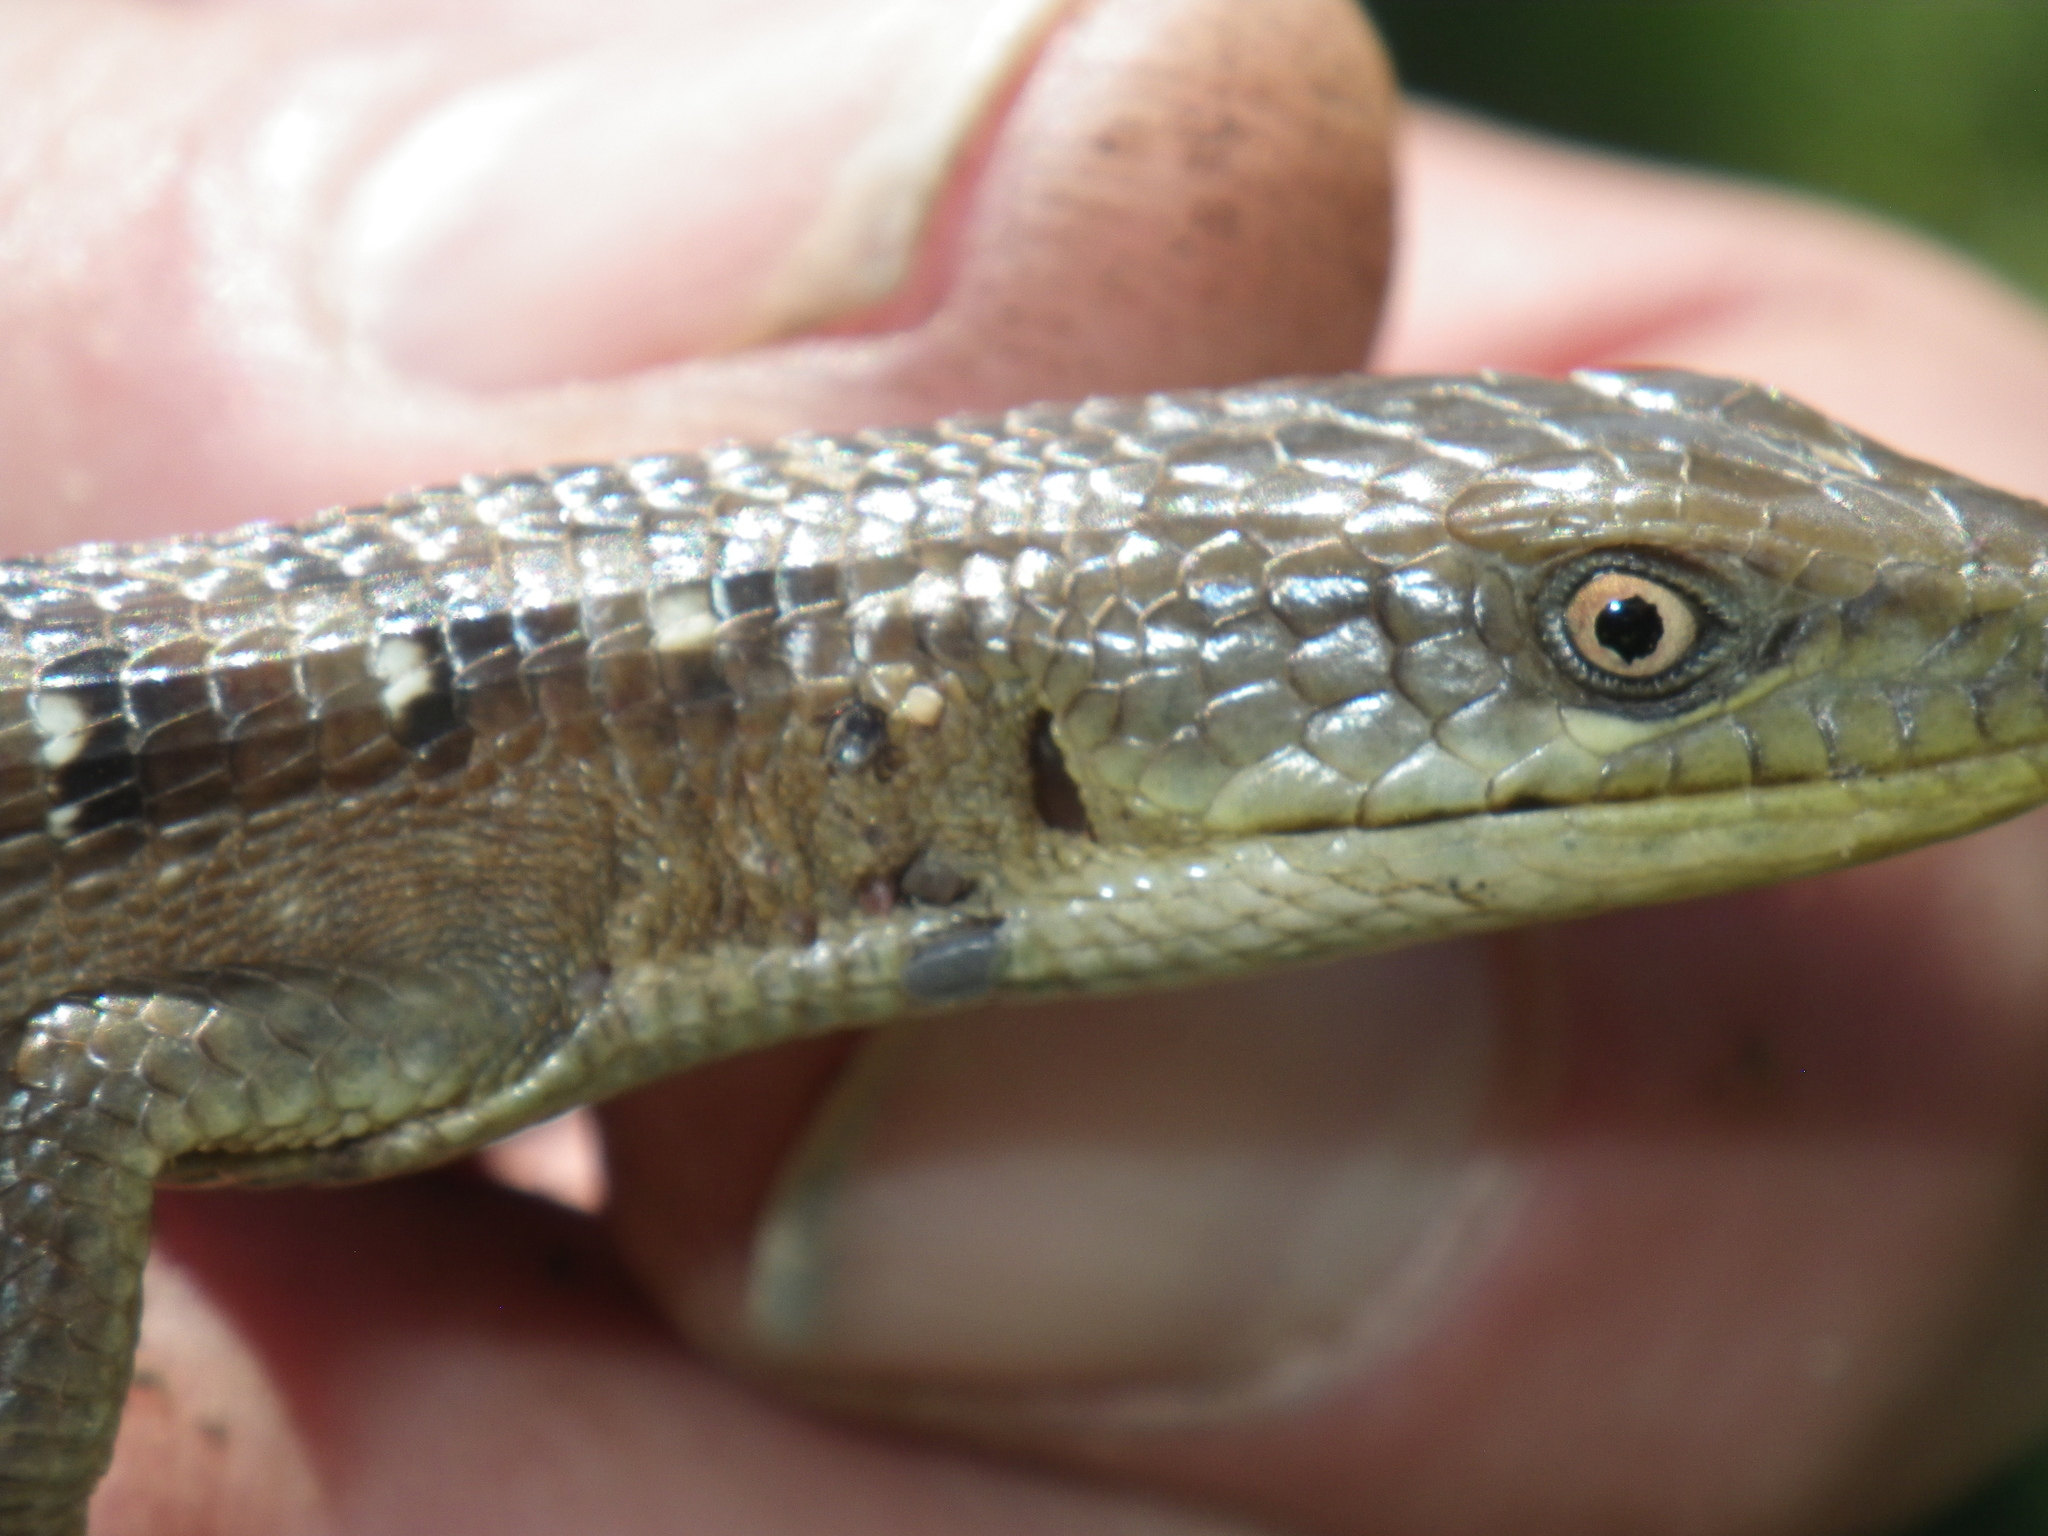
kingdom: Animalia
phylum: Chordata
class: Squamata
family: Anguidae
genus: Elgaria
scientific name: Elgaria multicarinata
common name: Southern alligator lizard
